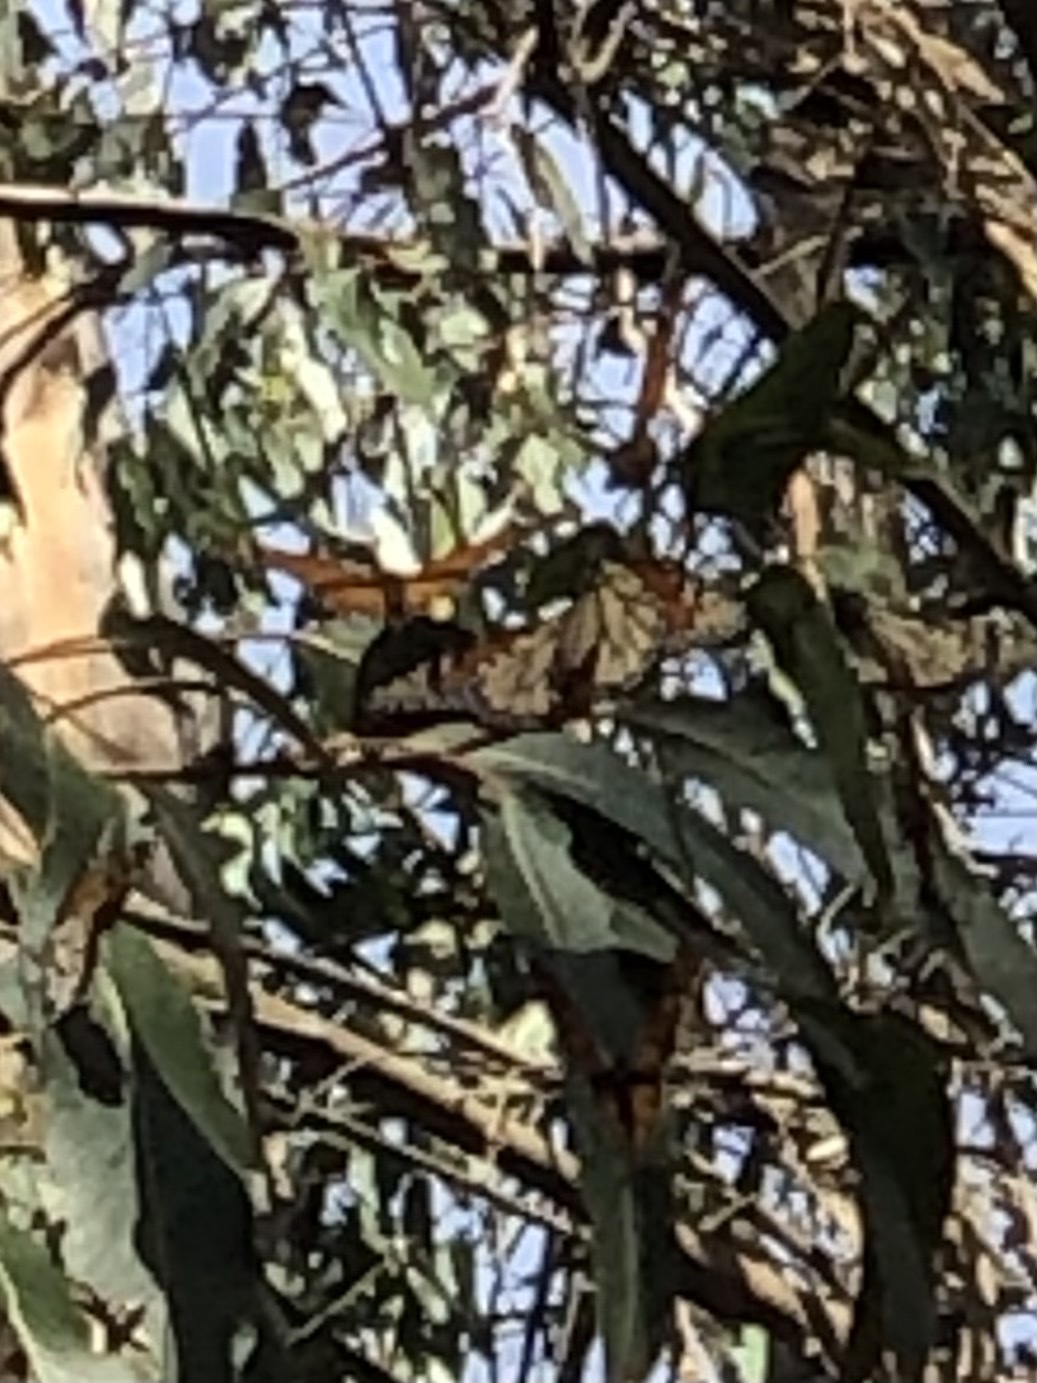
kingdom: Animalia
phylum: Arthropoda
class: Insecta
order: Lepidoptera
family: Nymphalidae
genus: Danaus
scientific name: Danaus plexippus
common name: Monarch
